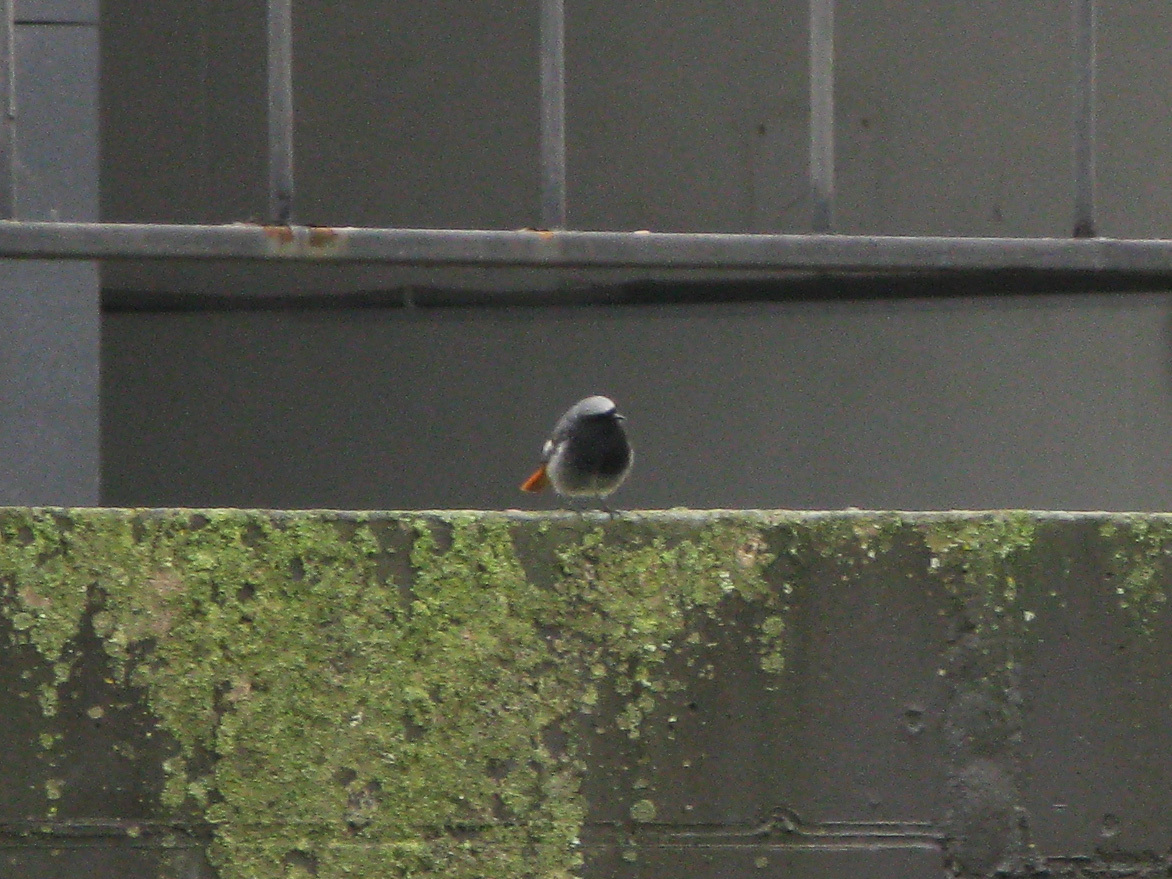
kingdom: Animalia
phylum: Chordata
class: Aves
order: Passeriformes
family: Muscicapidae
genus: Phoenicurus
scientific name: Phoenicurus ochruros
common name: Black redstart
